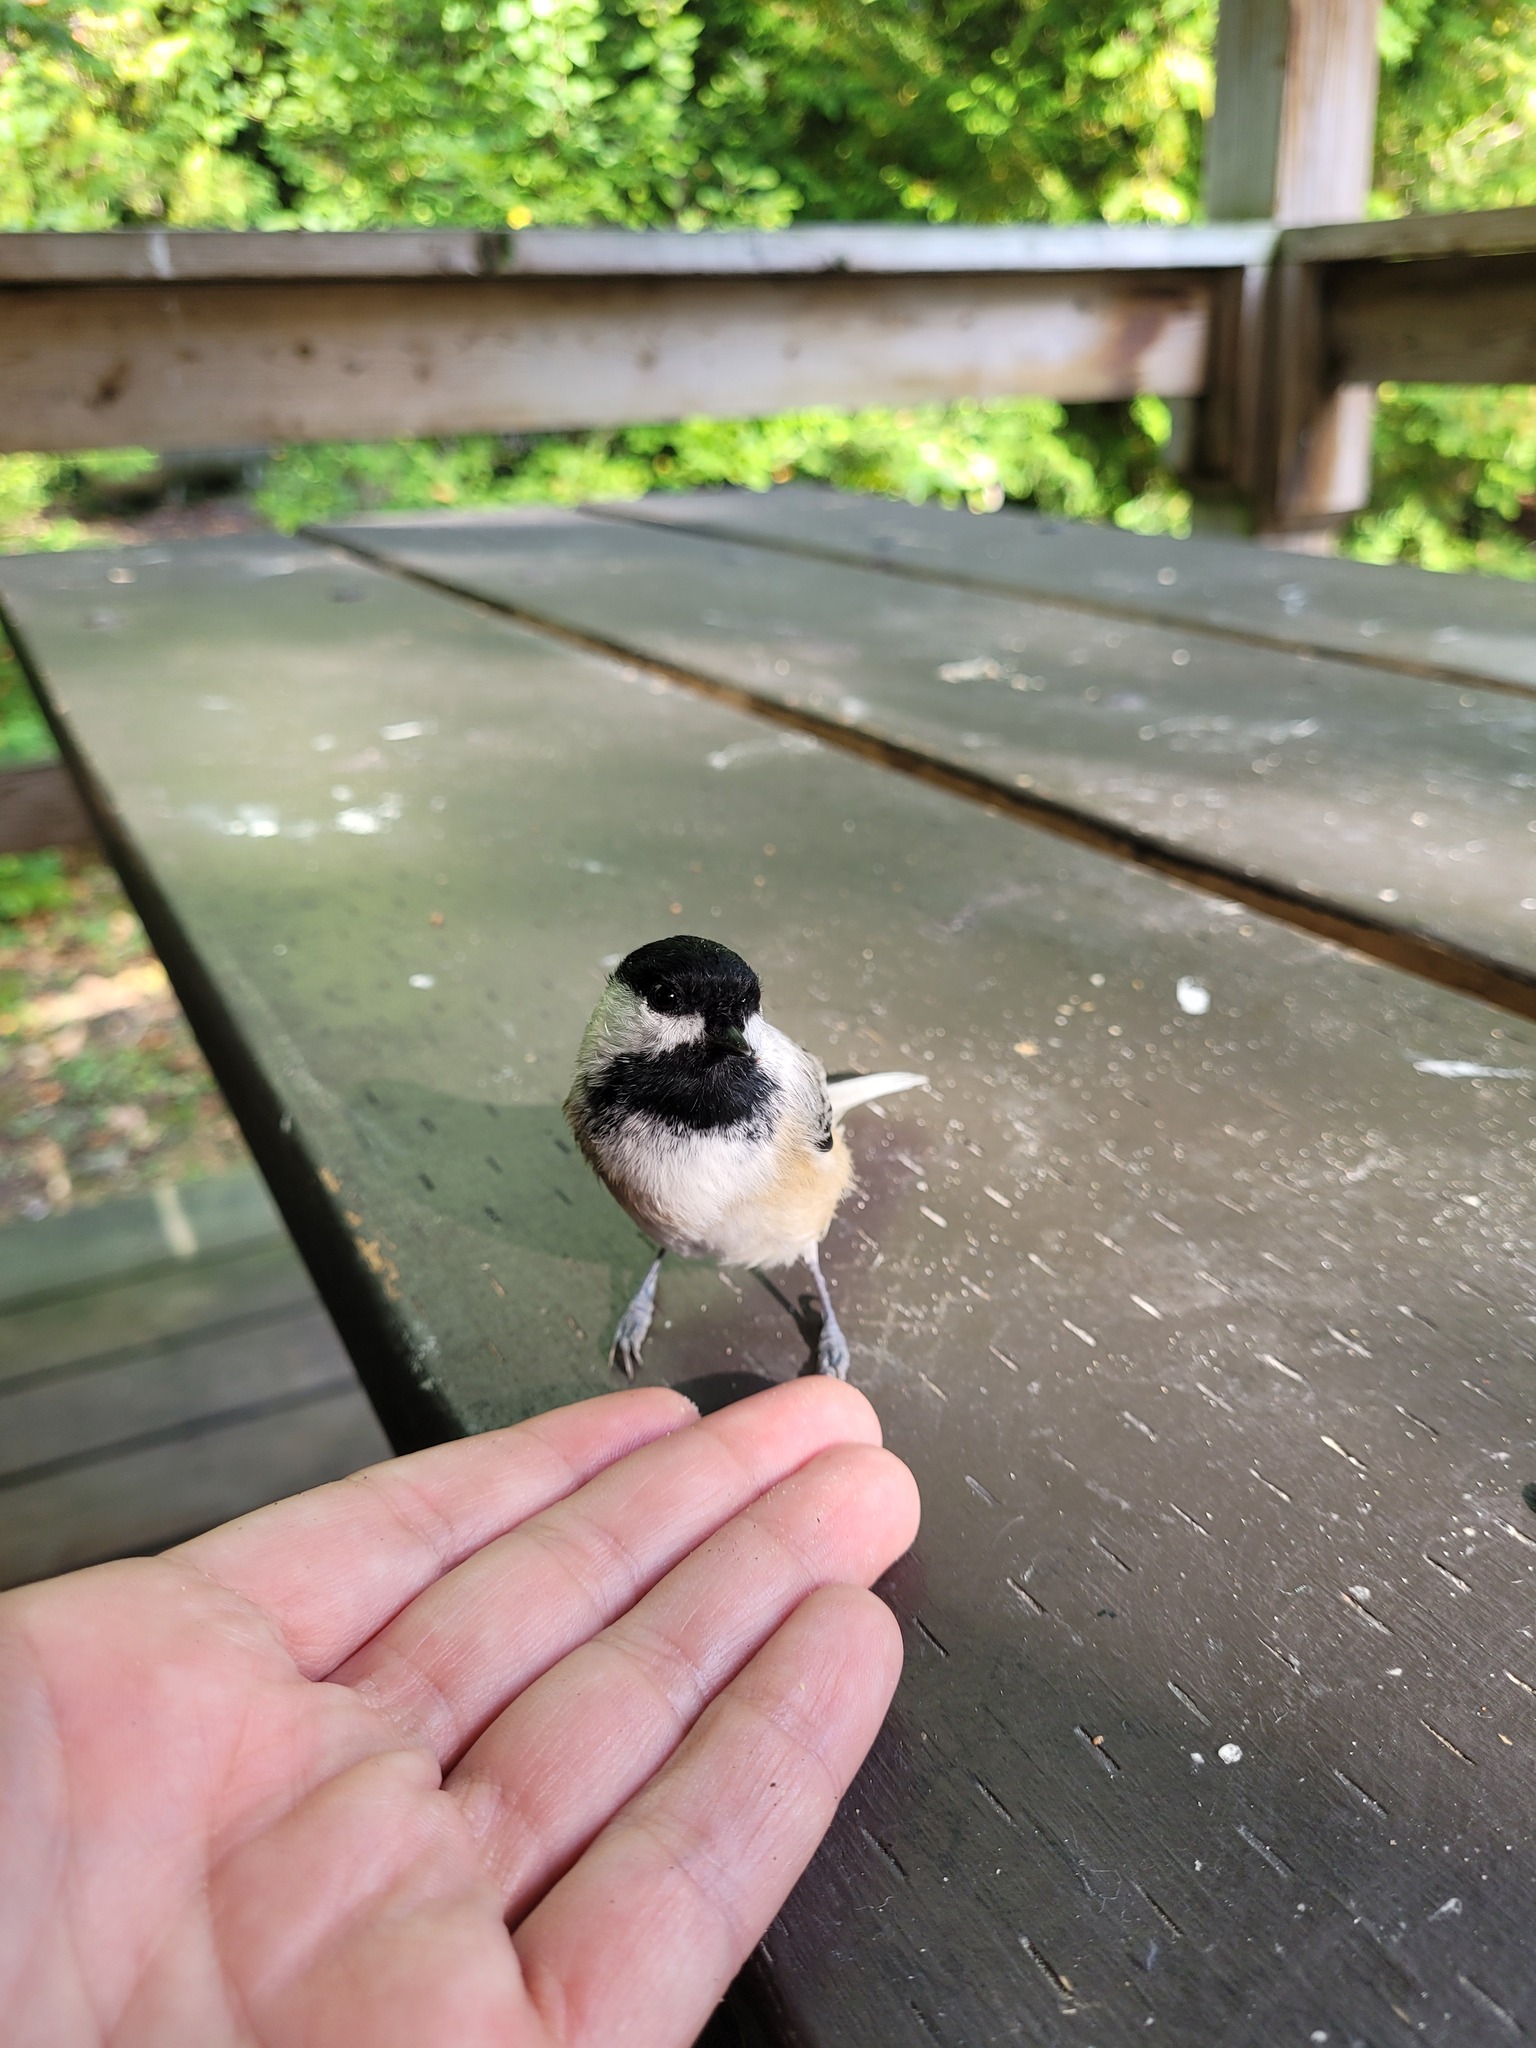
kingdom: Animalia
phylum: Chordata
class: Aves
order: Passeriformes
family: Paridae
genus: Poecile
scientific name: Poecile atricapillus
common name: Black-capped chickadee
